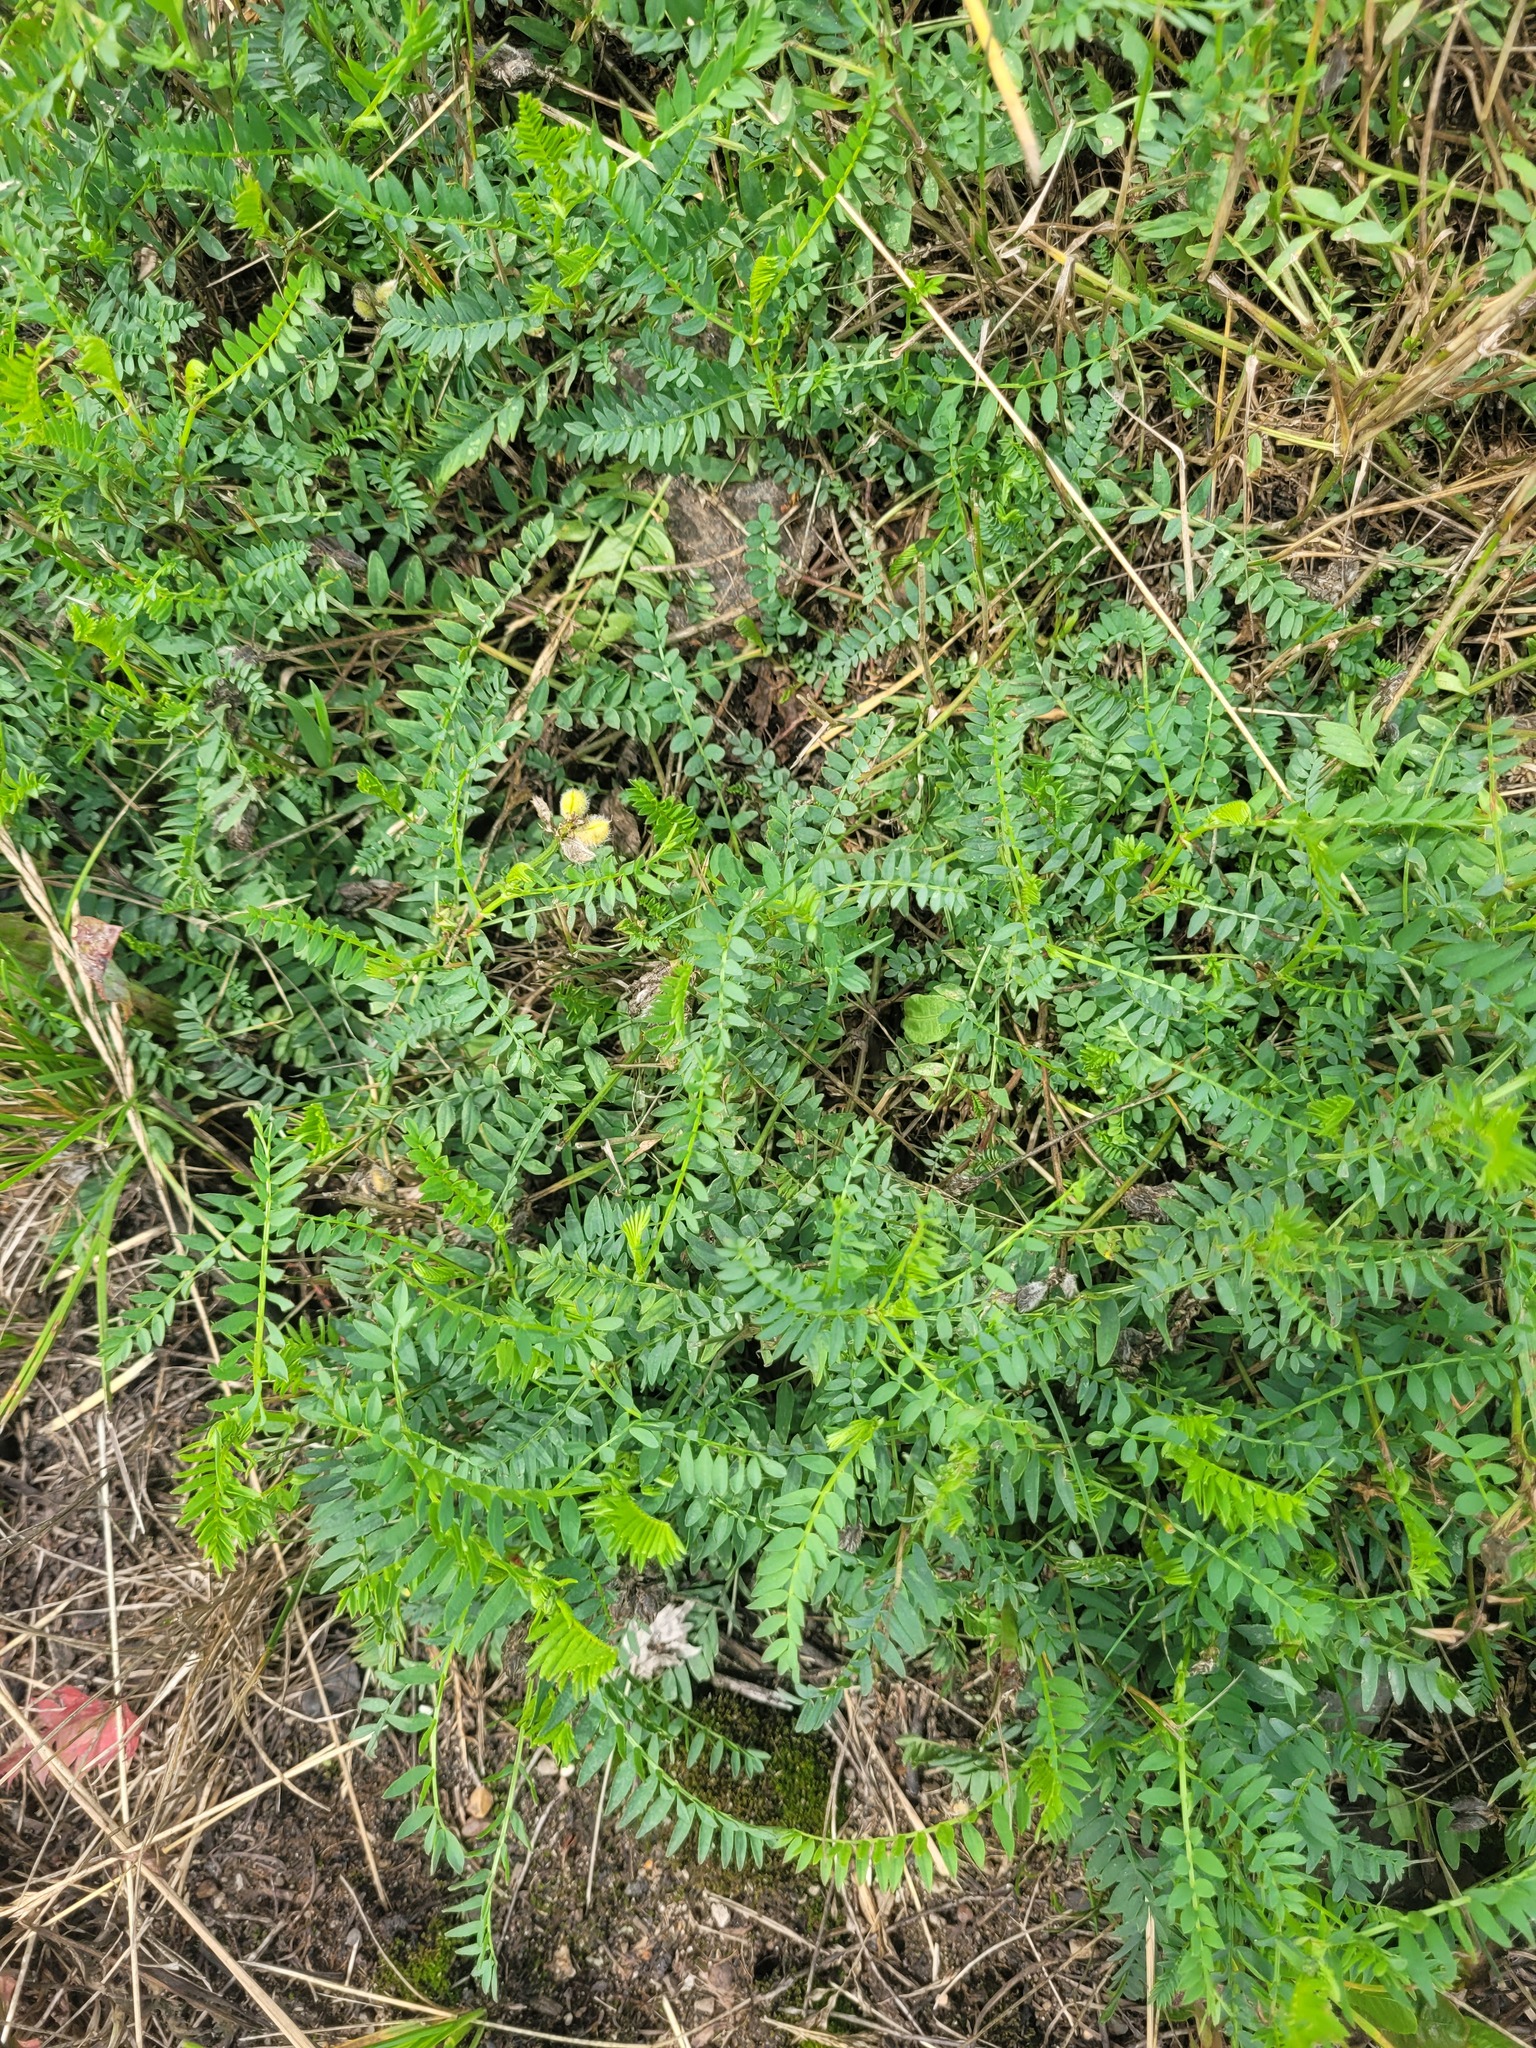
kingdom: Plantae
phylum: Tracheophyta
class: Magnoliopsida
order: Fabales
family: Fabaceae
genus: Astragalus
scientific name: Astragalus danicus
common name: Purple milk-vetch
